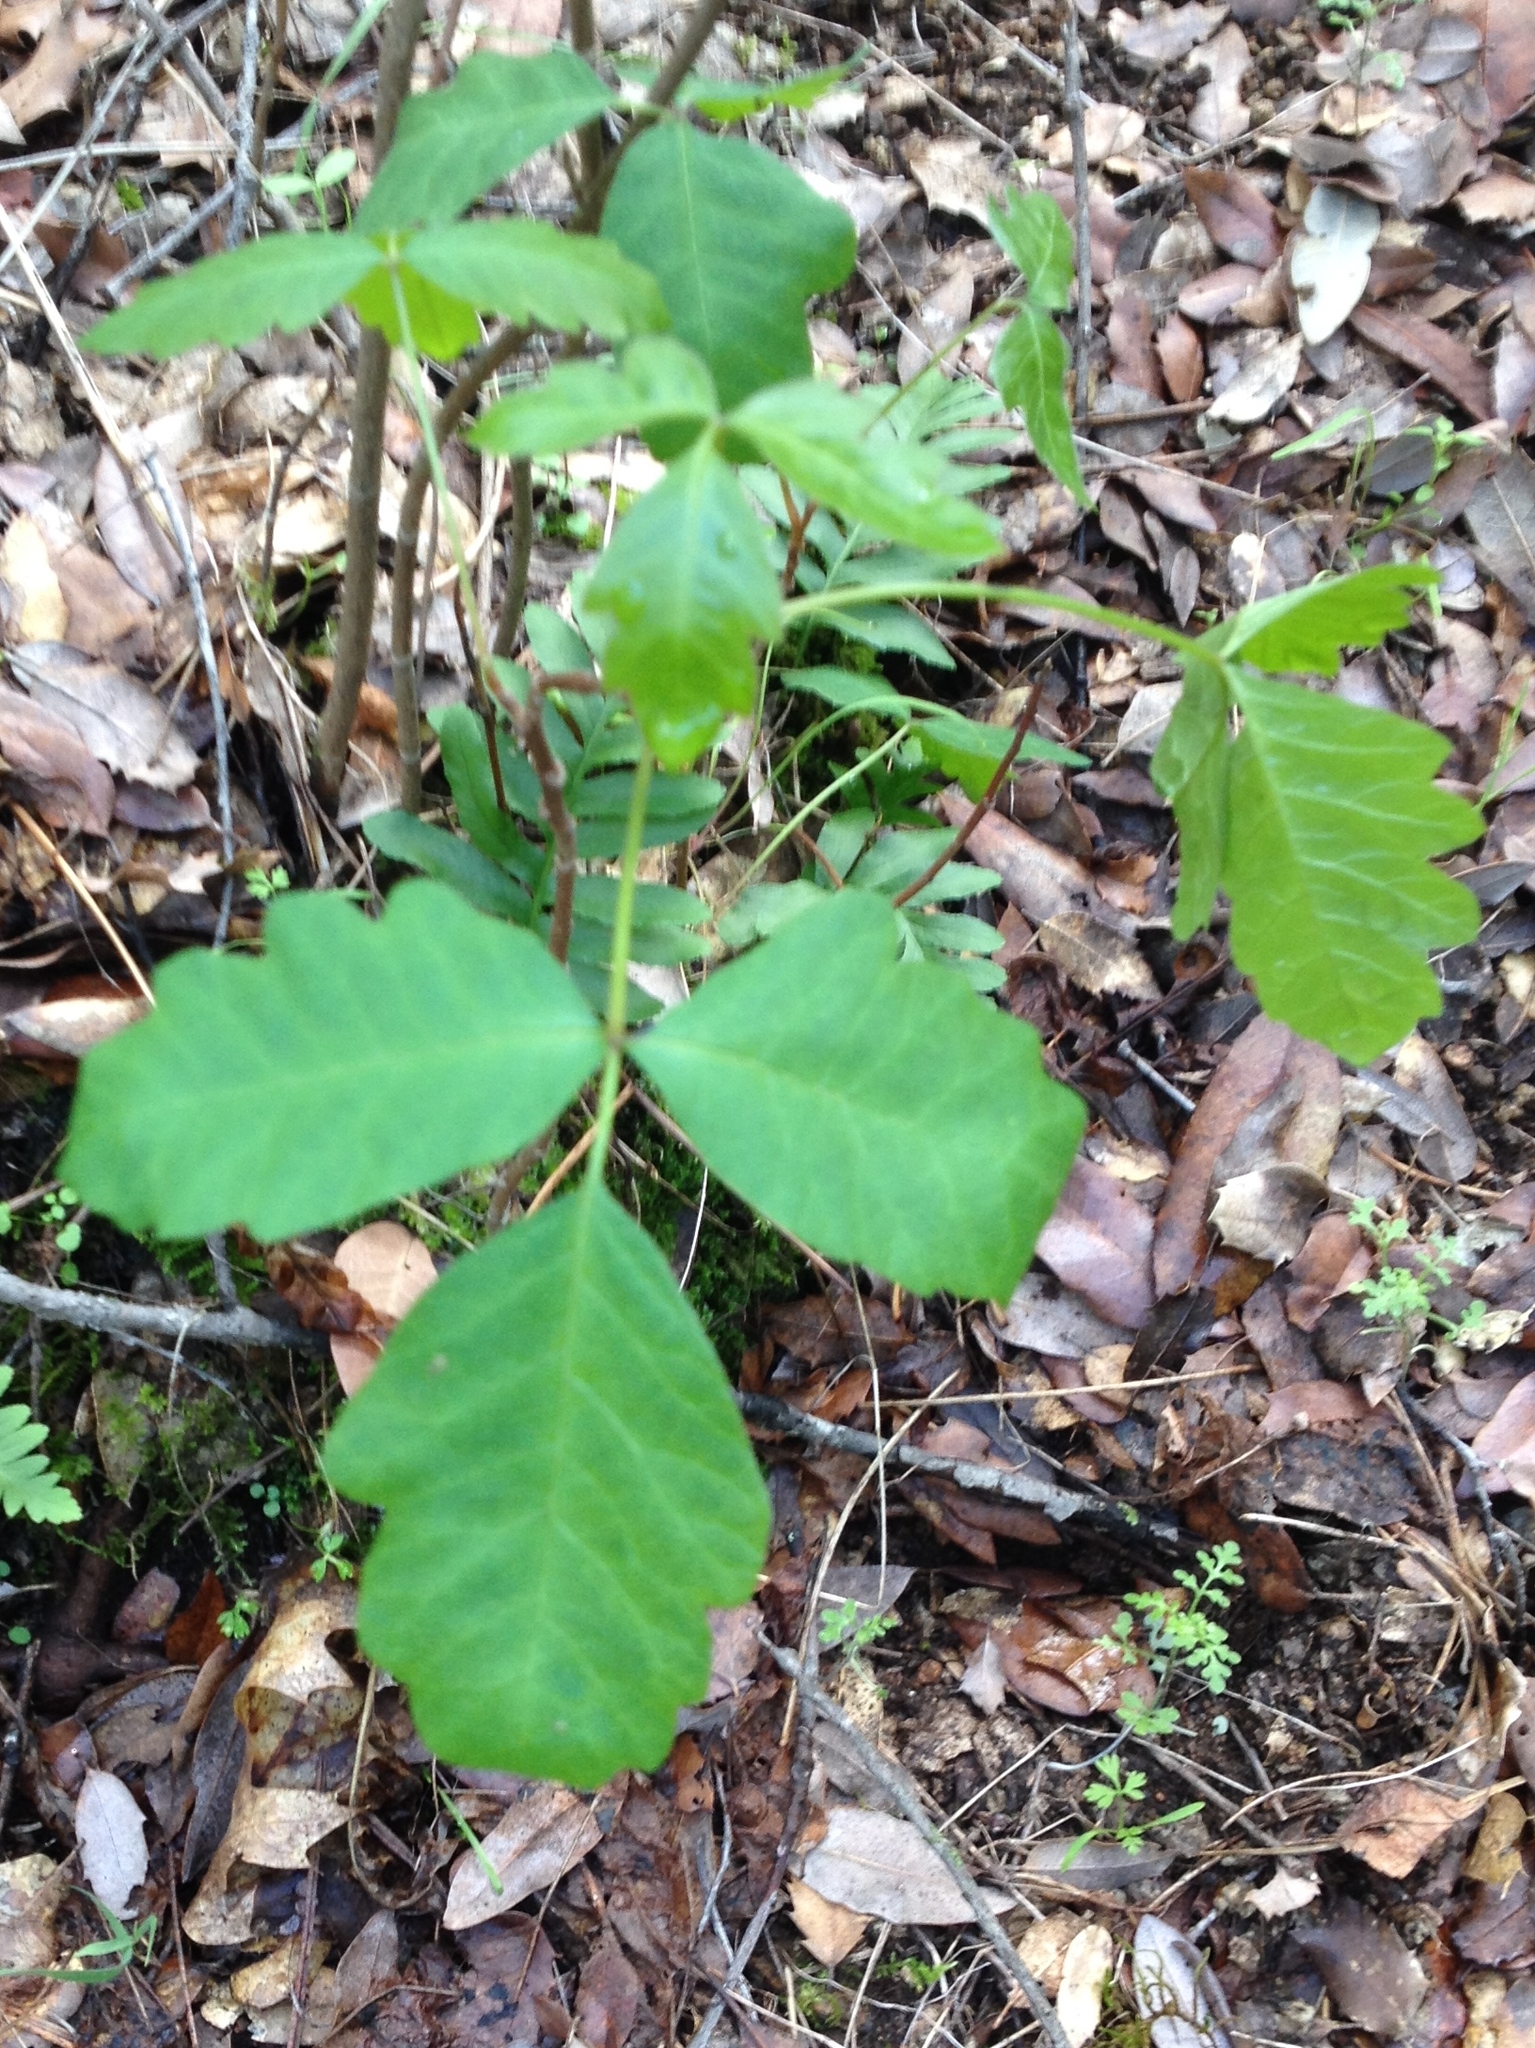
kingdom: Plantae
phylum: Tracheophyta
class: Magnoliopsida
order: Sapindales
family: Anacardiaceae
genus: Toxicodendron
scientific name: Toxicodendron diversilobum
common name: Pacific poison-oak
